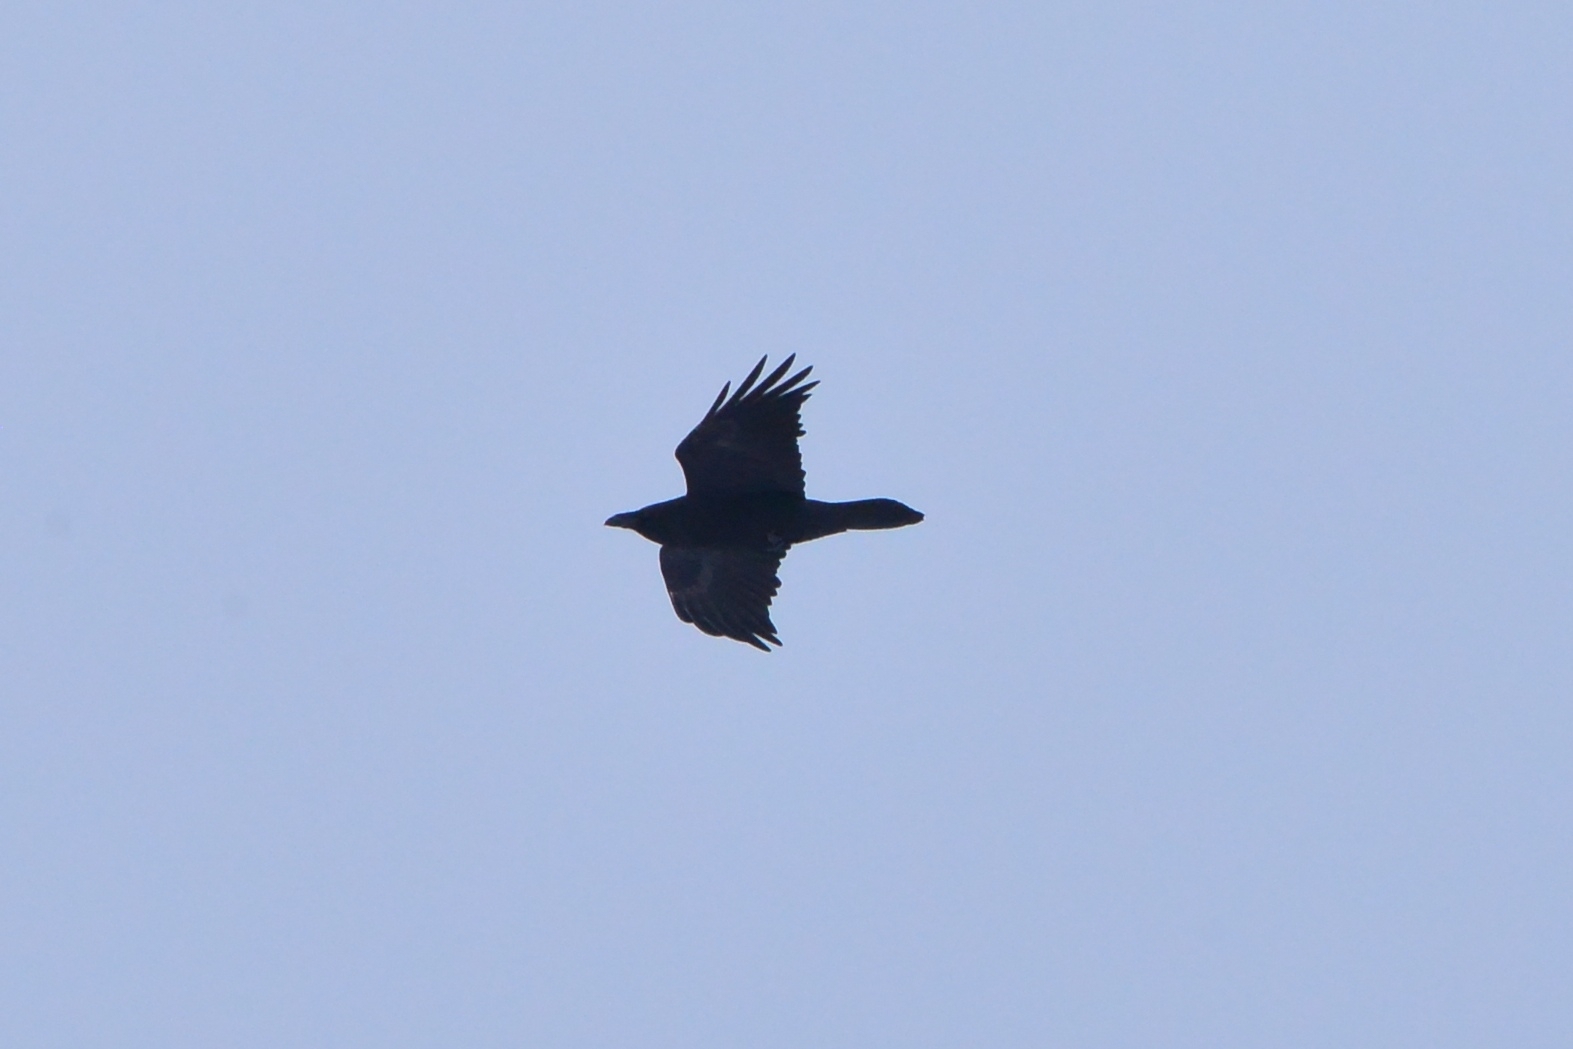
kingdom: Animalia
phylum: Chordata
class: Aves
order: Passeriformes
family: Corvidae
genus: Corvus
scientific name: Corvus corax
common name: Common raven
